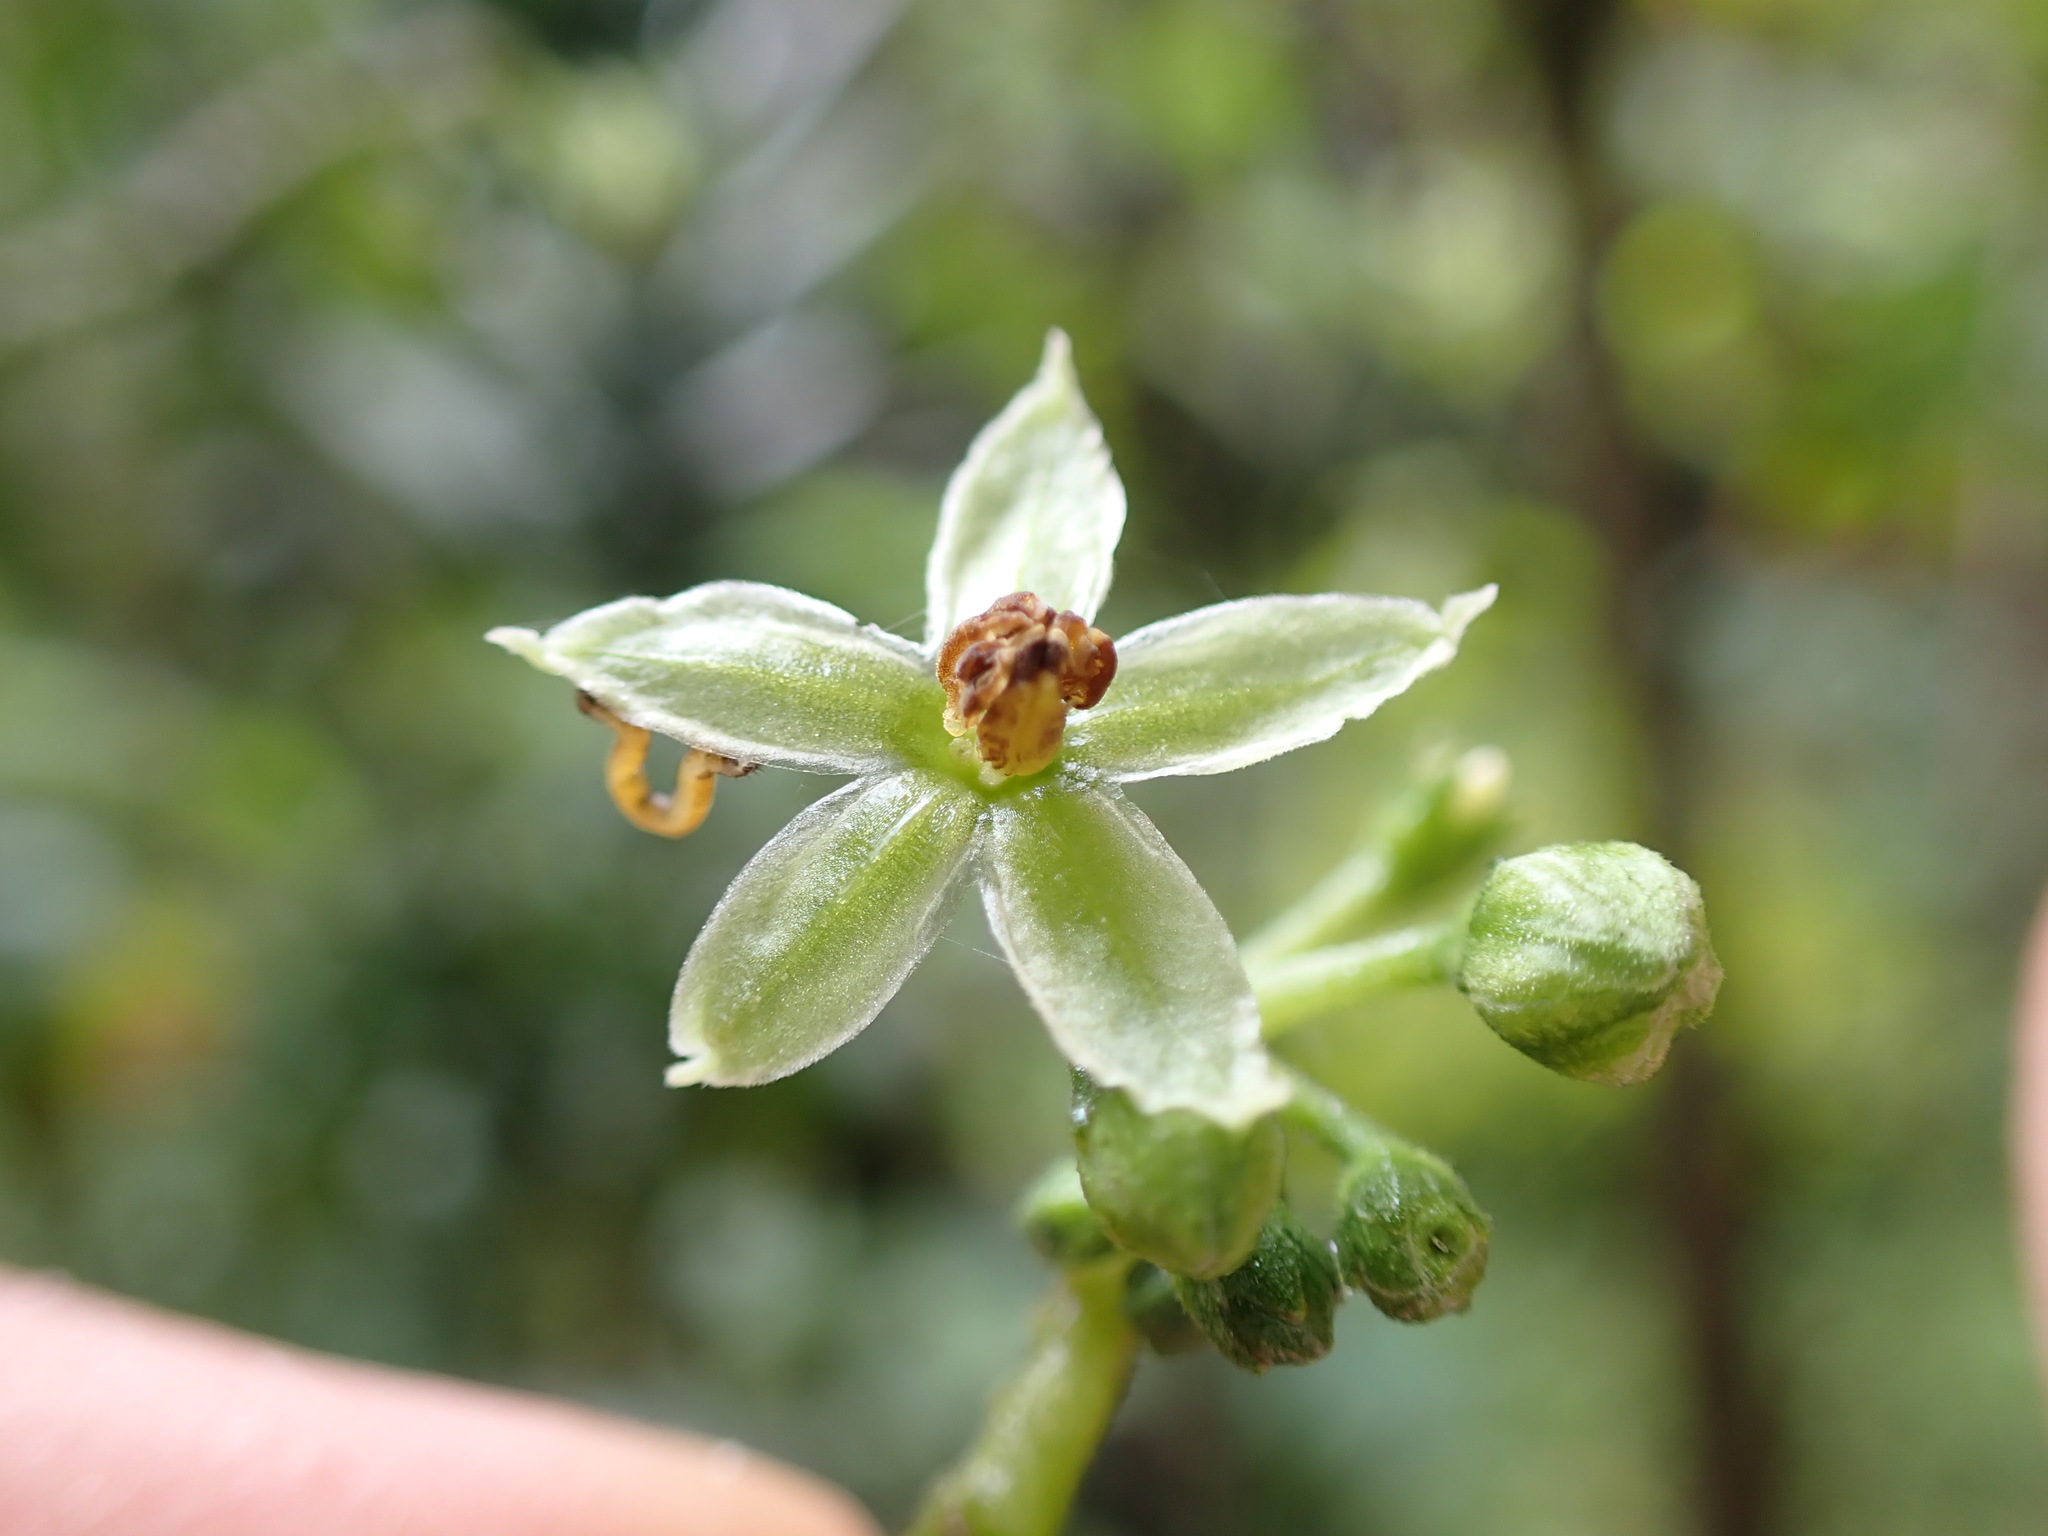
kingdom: Plantae
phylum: Tracheophyta
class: Magnoliopsida
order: Solanales
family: Solanaceae
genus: Solanum
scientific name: Solanum conicum
